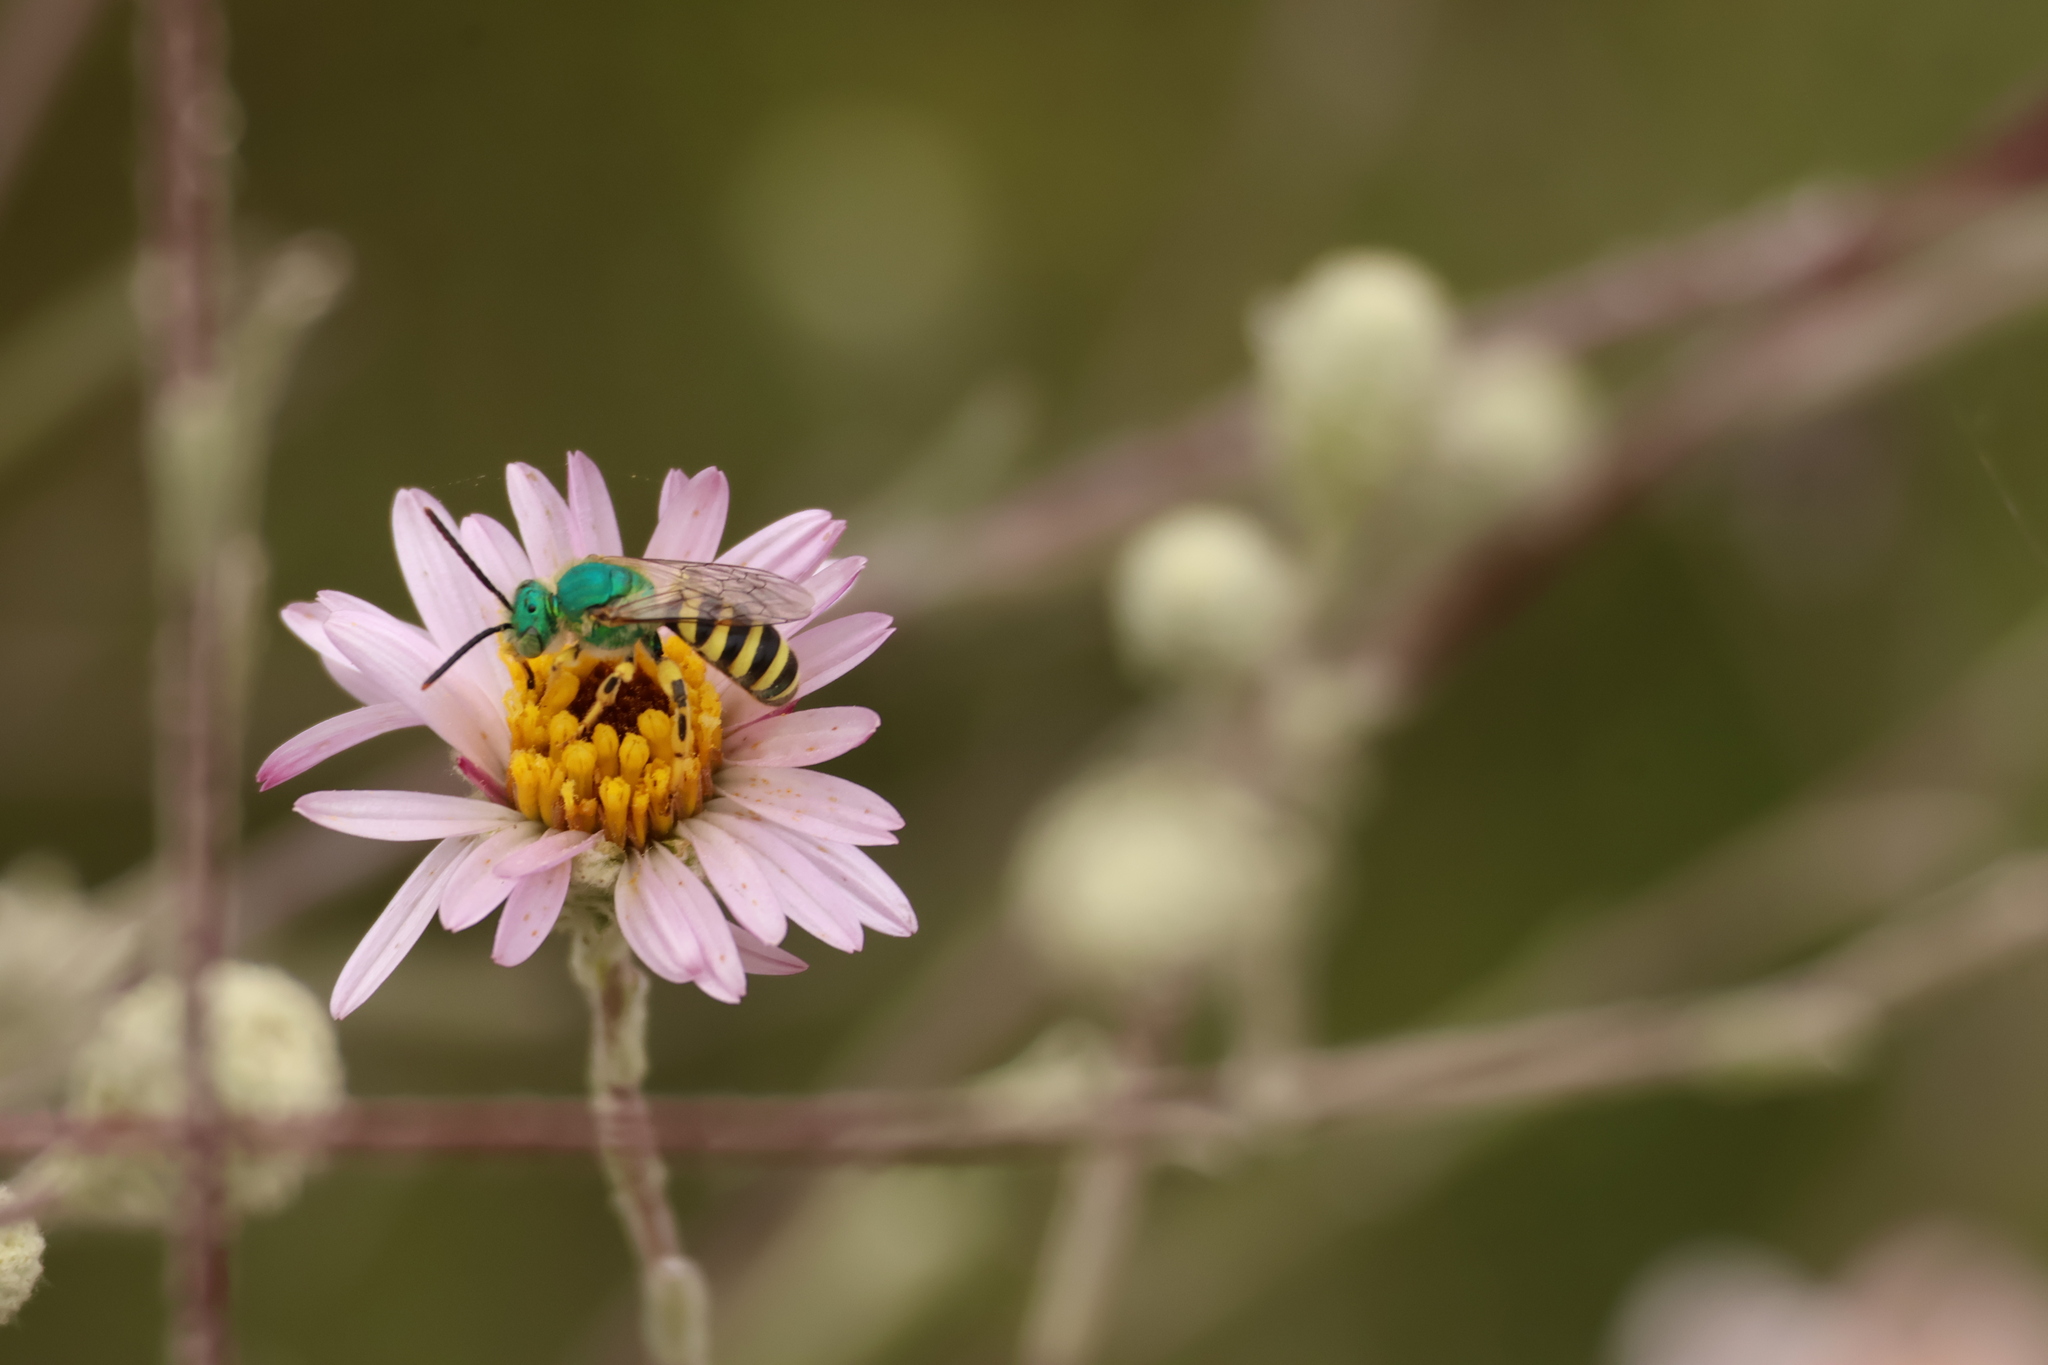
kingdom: Animalia
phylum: Arthropoda
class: Insecta
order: Hymenoptera
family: Halictidae
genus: Agapostemon
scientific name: Agapostemon texanus
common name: Texas striped sweat bee
